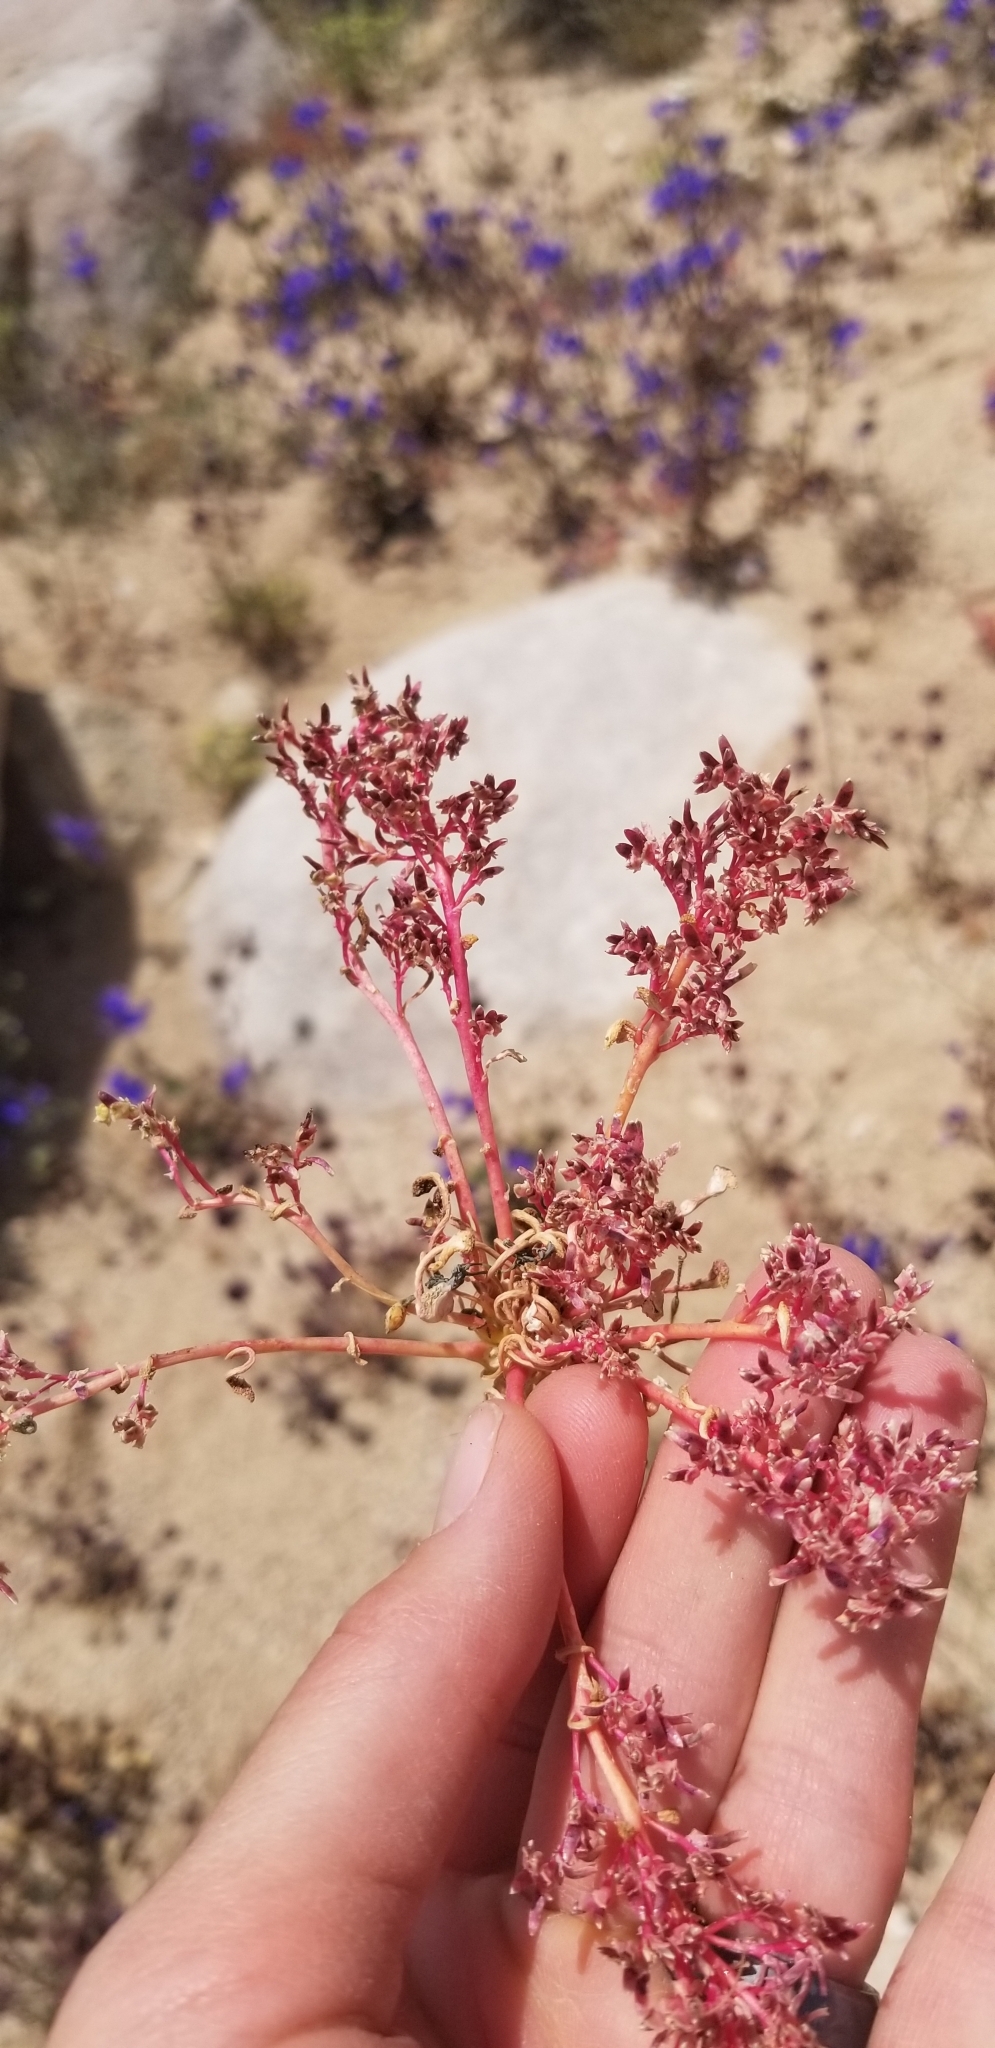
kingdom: Plantae
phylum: Tracheophyta
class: Magnoliopsida
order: Caryophyllales
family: Montiaceae
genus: Calyptridium
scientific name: Calyptridium monandrum
